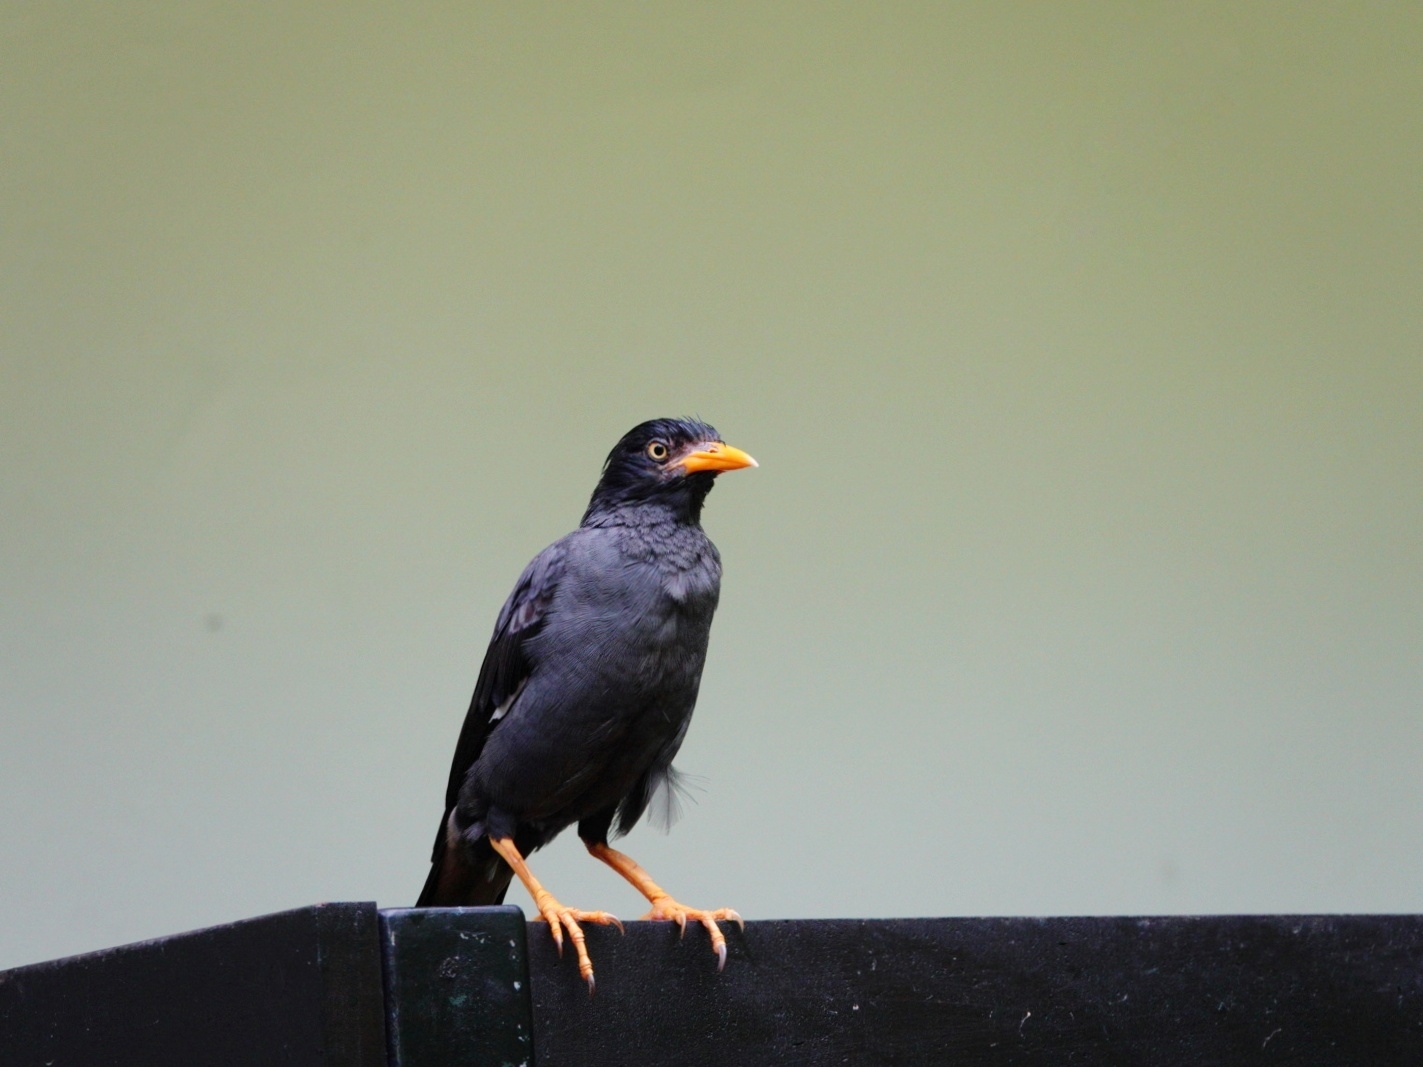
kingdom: Animalia
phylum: Chordata
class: Aves
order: Passeriformes
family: Sturnidae
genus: Acridotheres
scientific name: Acridotheres javanicus
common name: Javan myna
